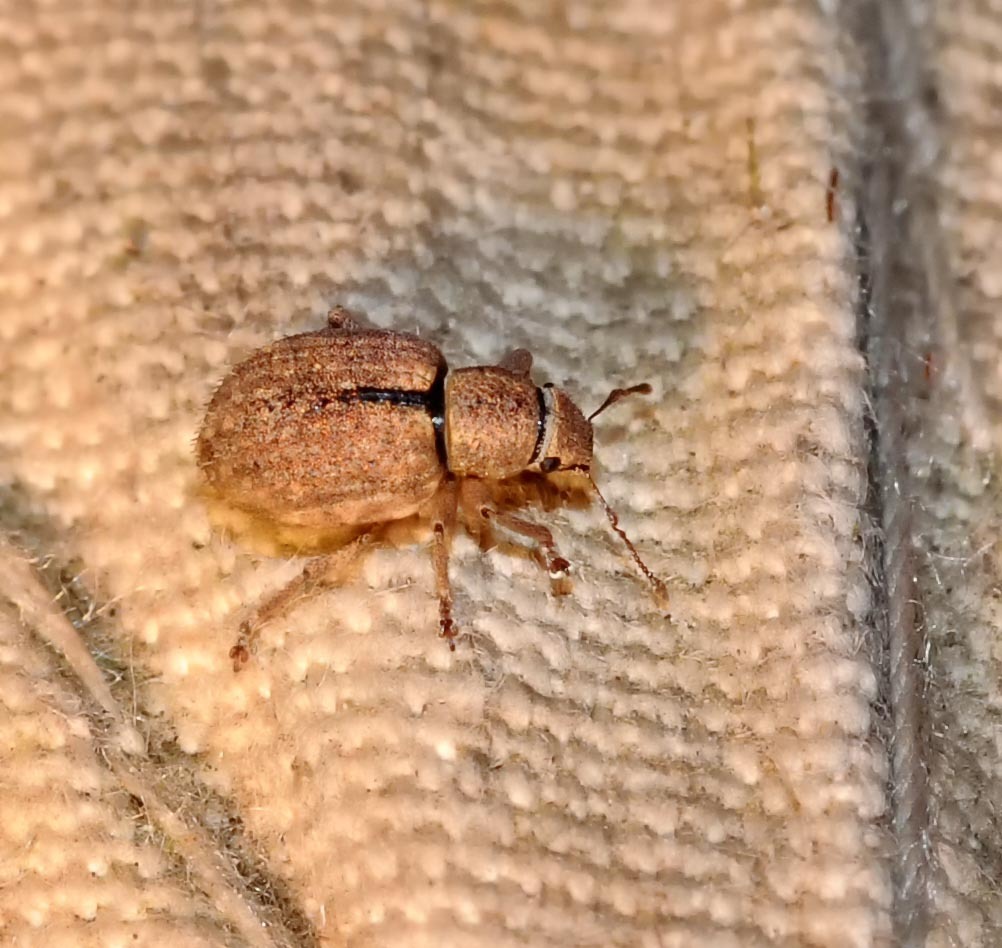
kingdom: Animalia
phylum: Arthropoda
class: Insecta
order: Coleoptera
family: Curculionidae
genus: Strophosoma
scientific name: Strophosoma melanogrammum
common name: Weevil
